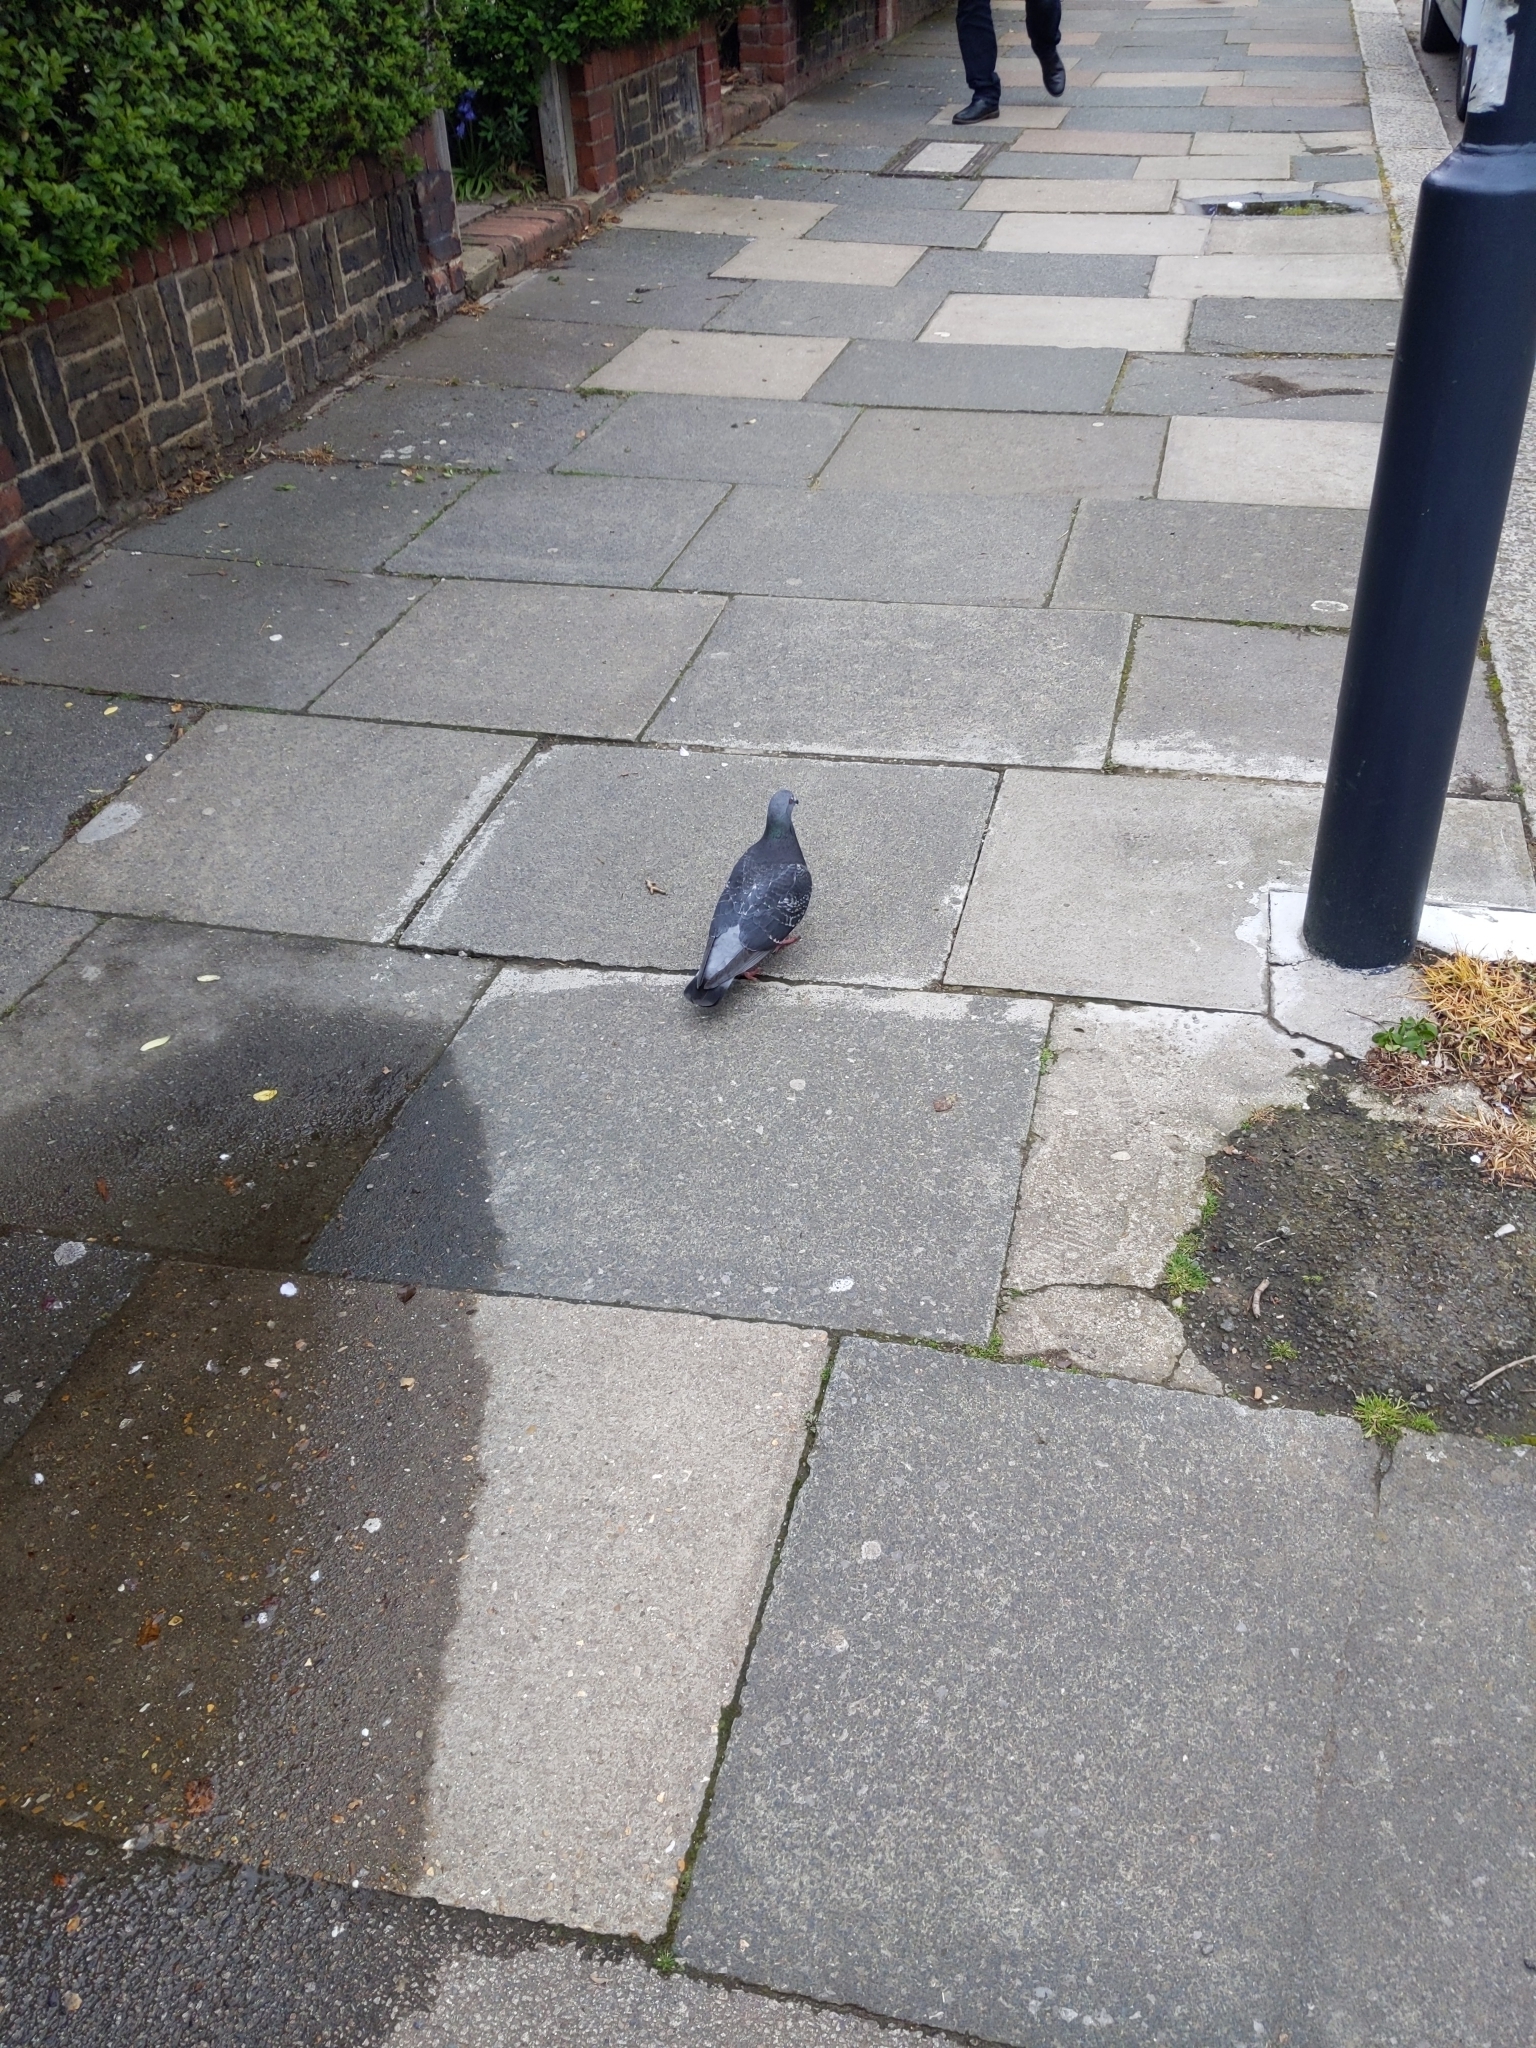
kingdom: Animalia
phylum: Chordata
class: Aves
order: Columbiformes
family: Columbidae
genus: Columba
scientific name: Columba livia
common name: Rock pigeon
